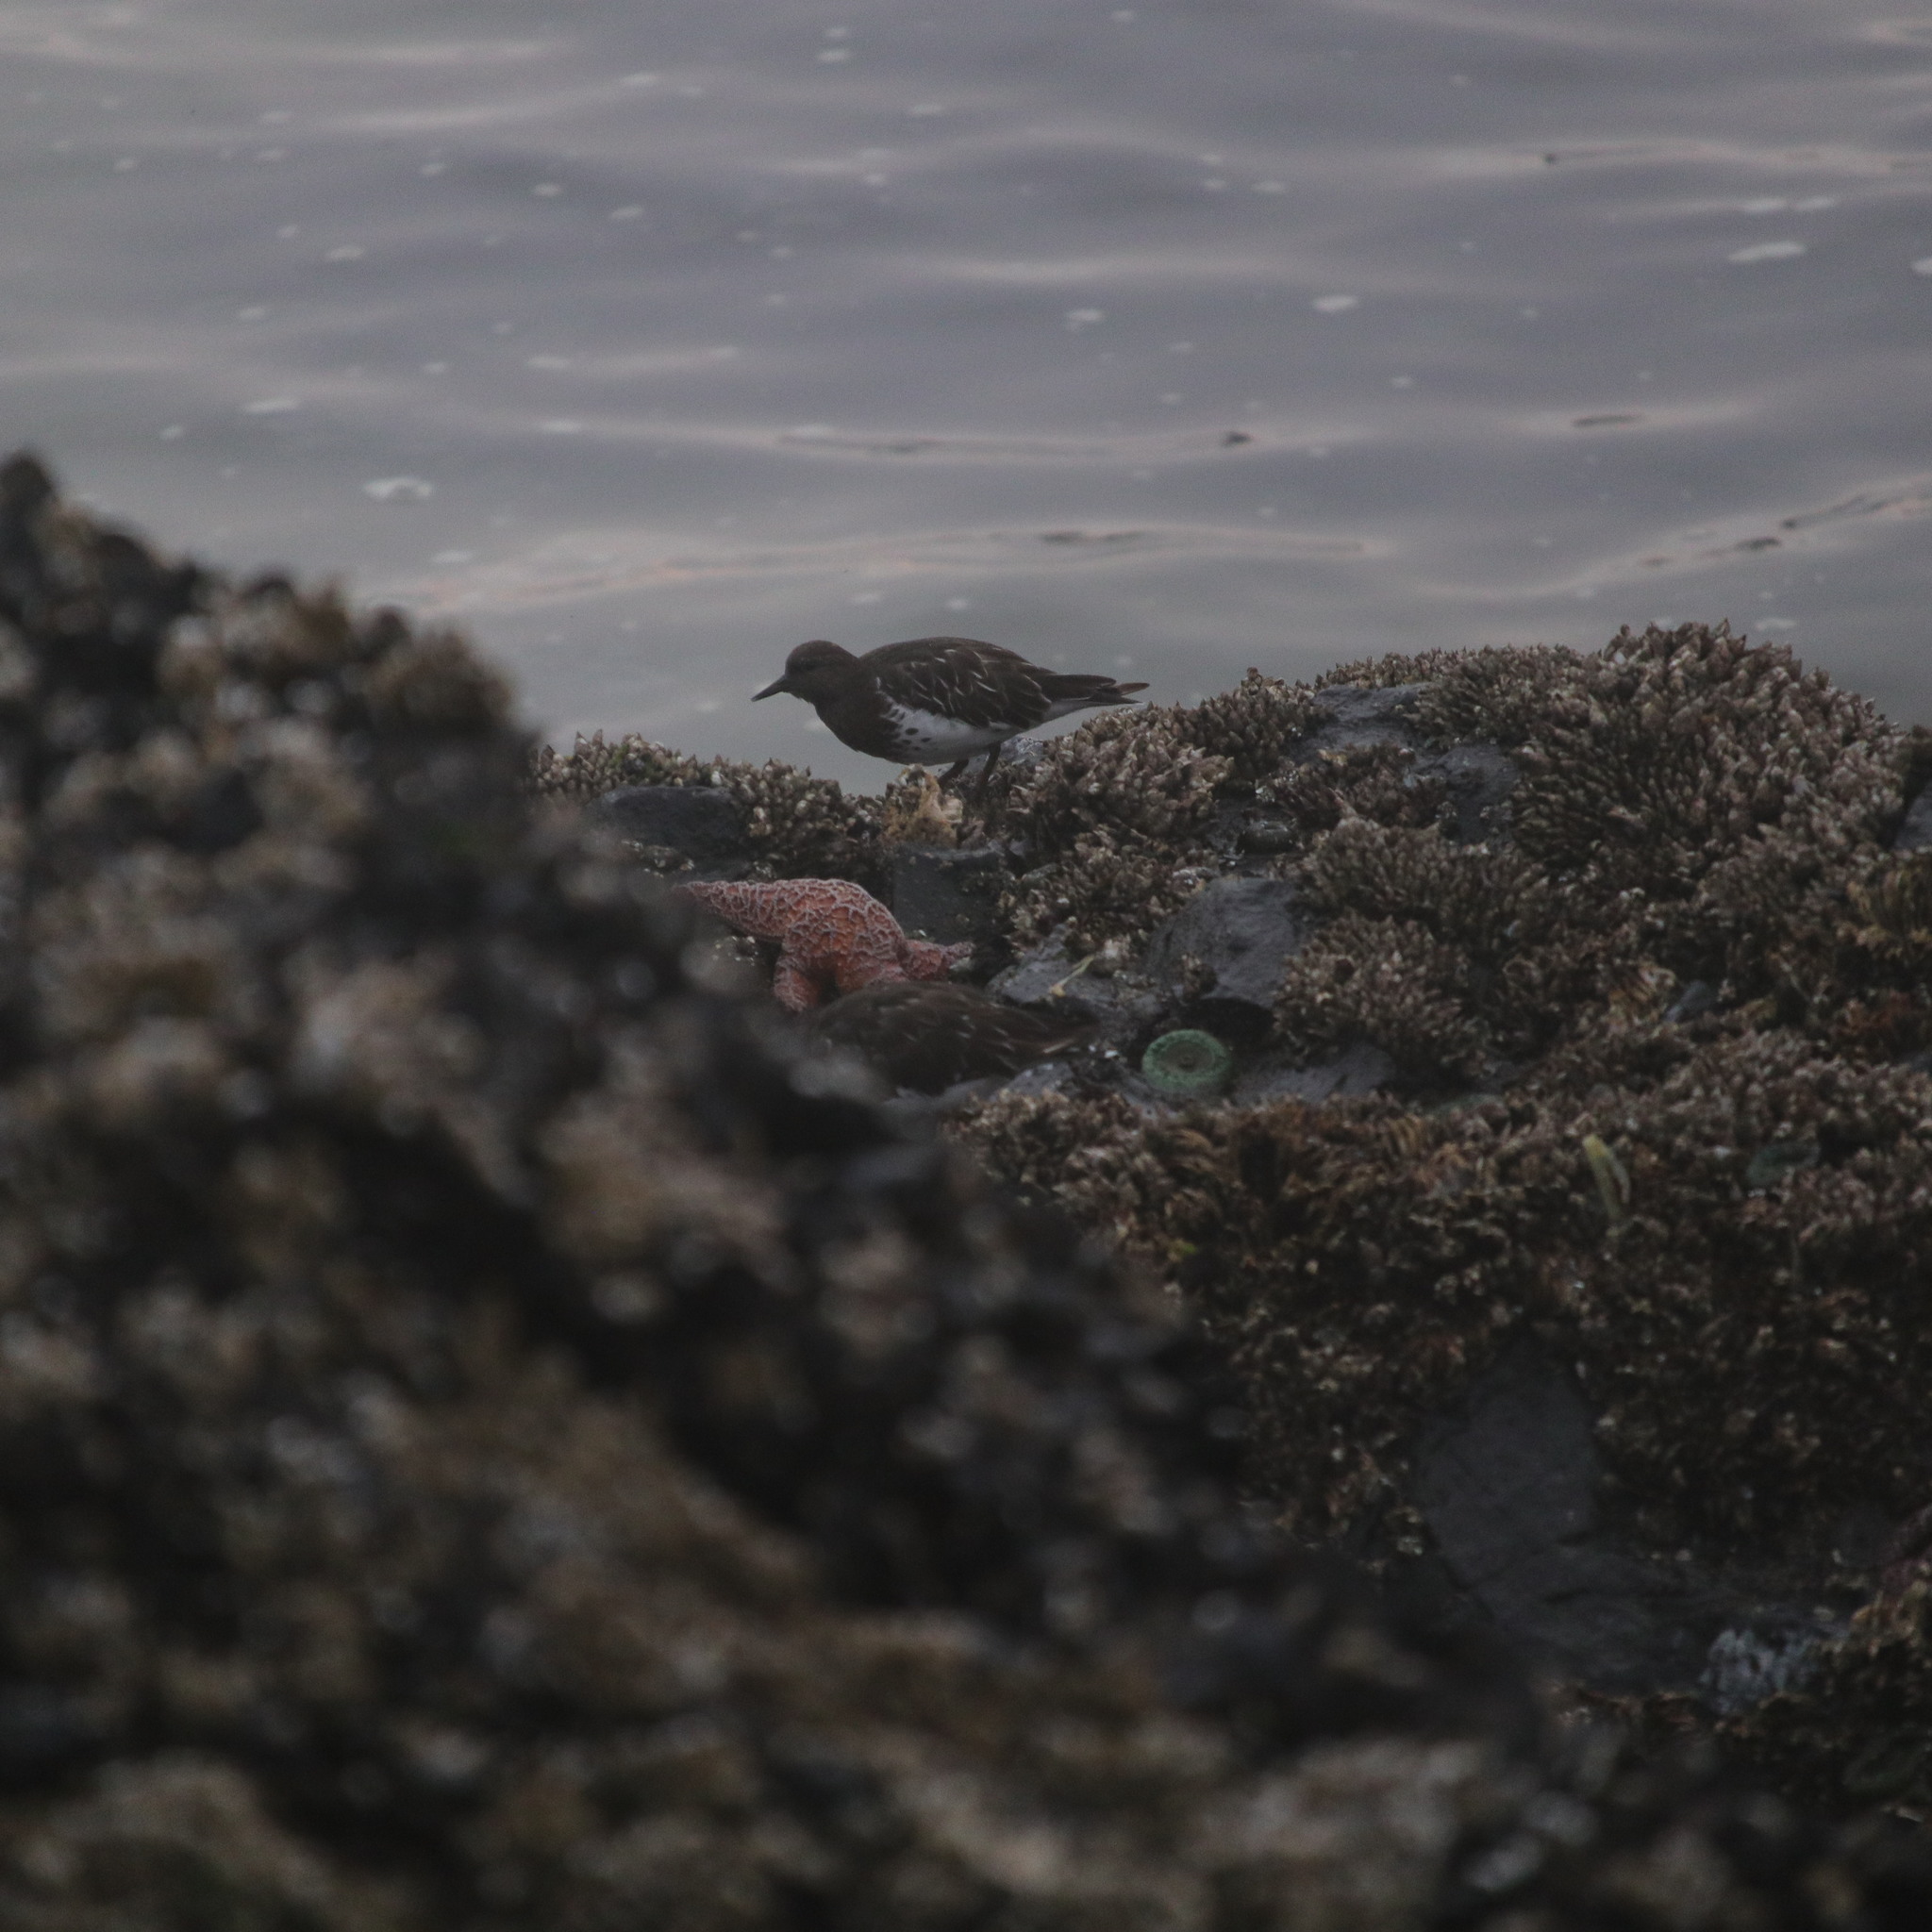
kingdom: Animalia
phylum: Chordata
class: Aves
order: Charadriiformes
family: Scolopacidae
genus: Arenaria
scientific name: Arenaria melanocephala
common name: Black turnstone
